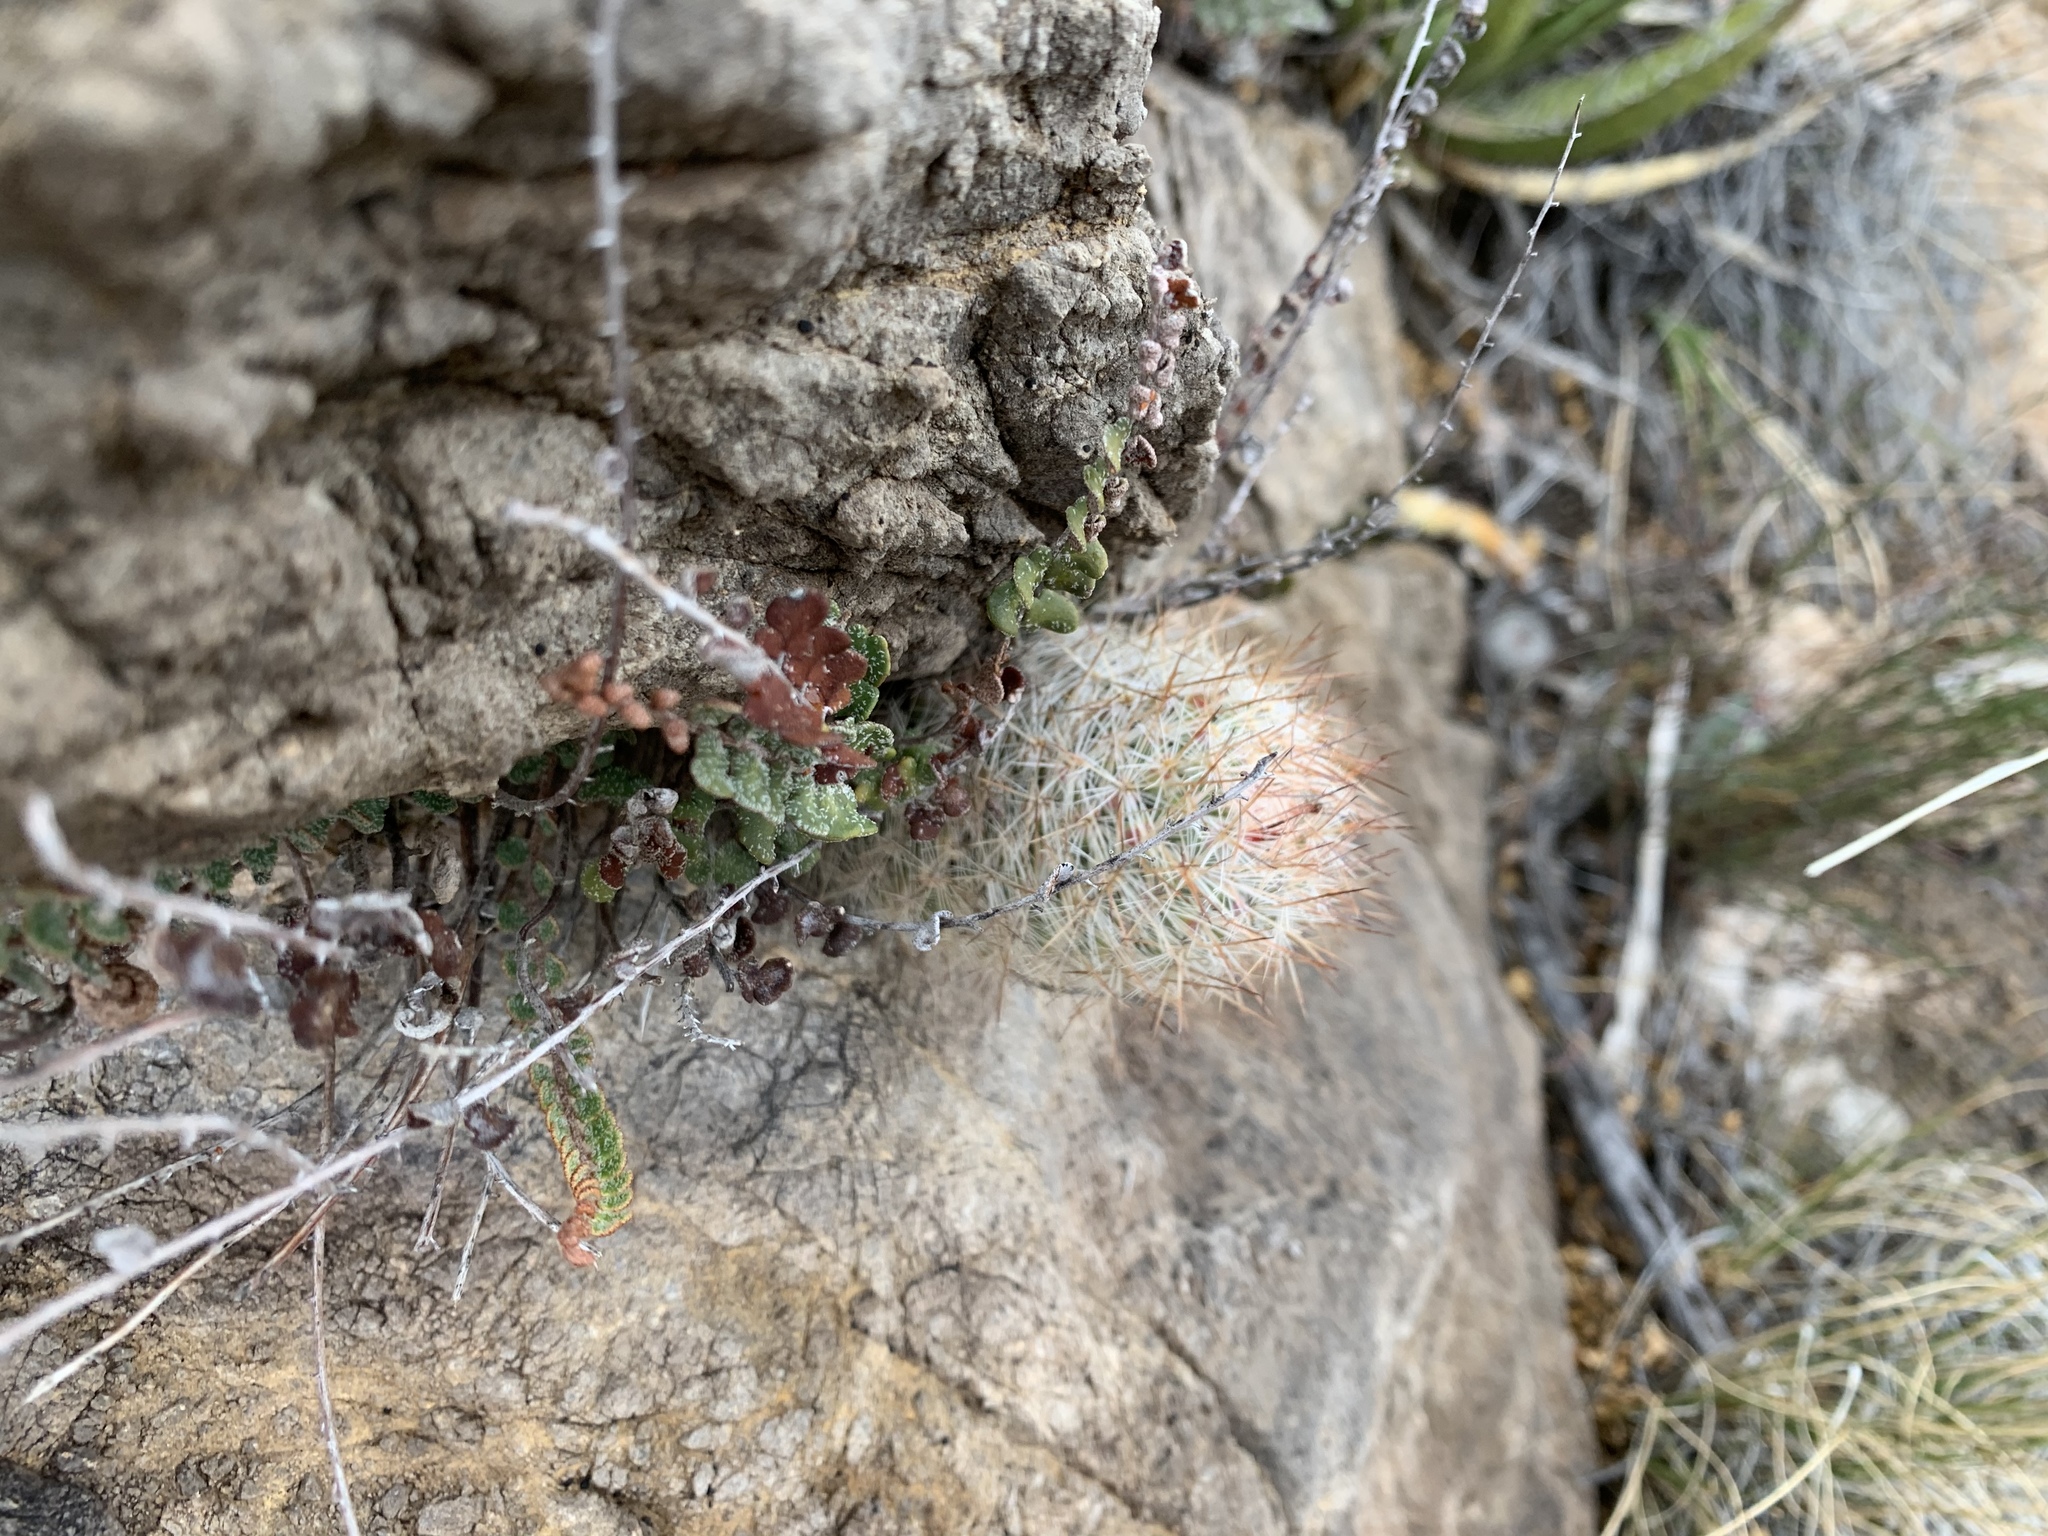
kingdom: Plantae
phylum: Tracheophyta
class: Magnoliopsida
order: Caryophyllales
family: Cactaceae
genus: Pelecyphora
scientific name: Pelecyphora tuberculosa
